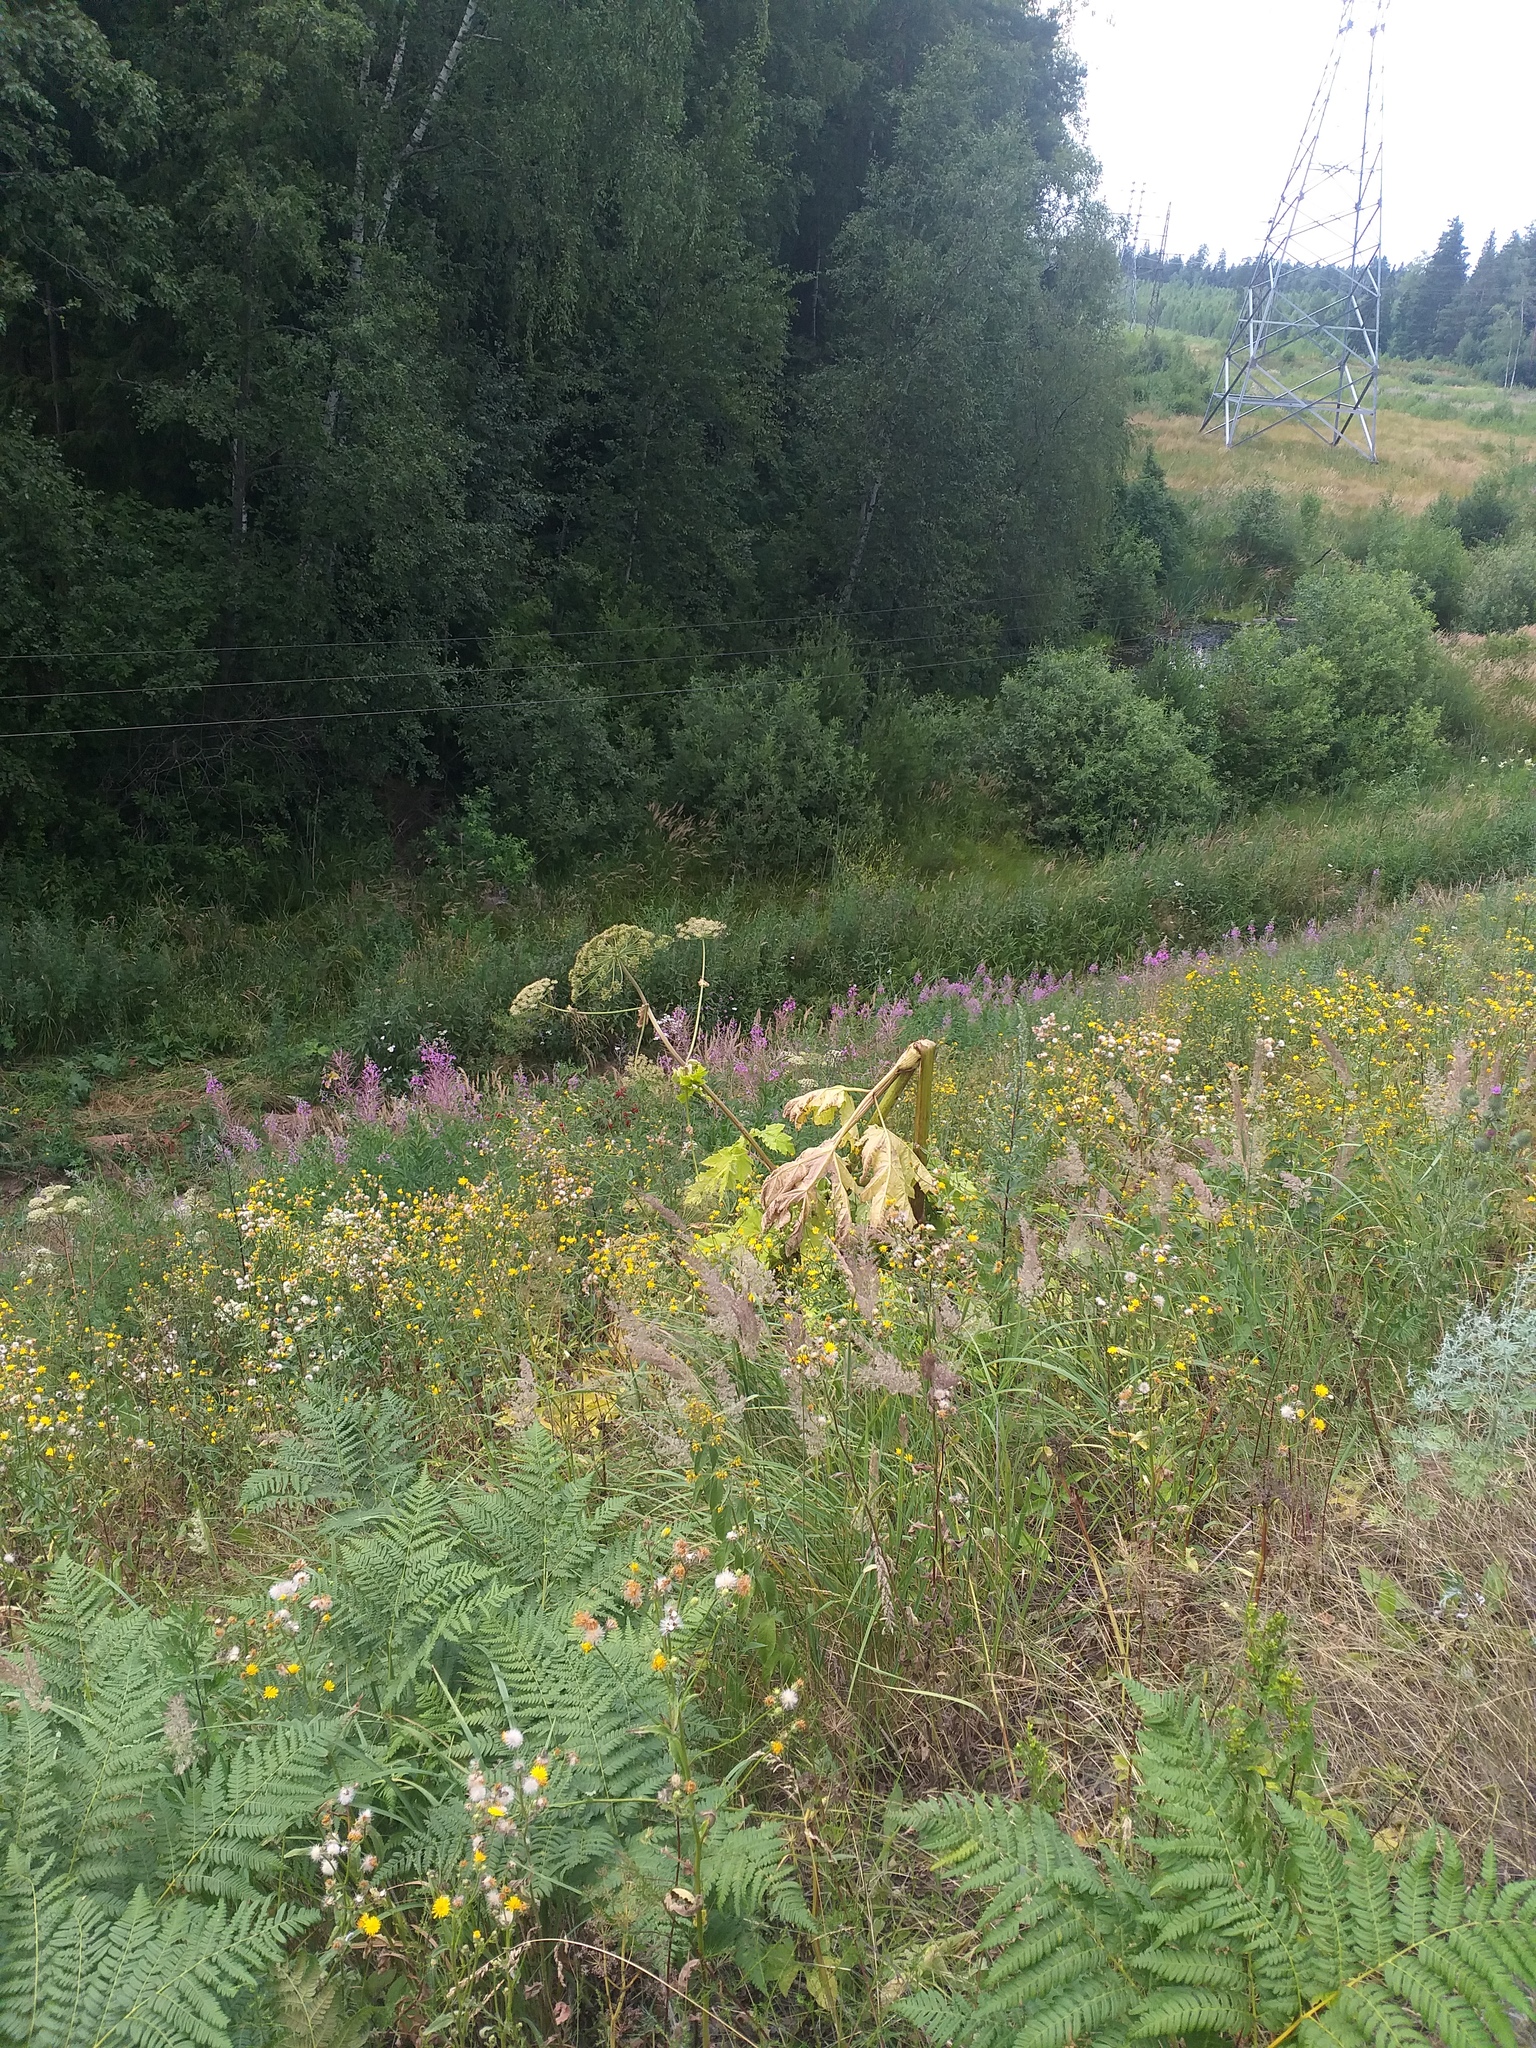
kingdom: Plantae
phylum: Tracheophyta
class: Magnoliopsida
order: Apiales
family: Apiaceae
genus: Heracleum
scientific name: Heracleum sosnowskyi
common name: Sosnowsky's hogweed
